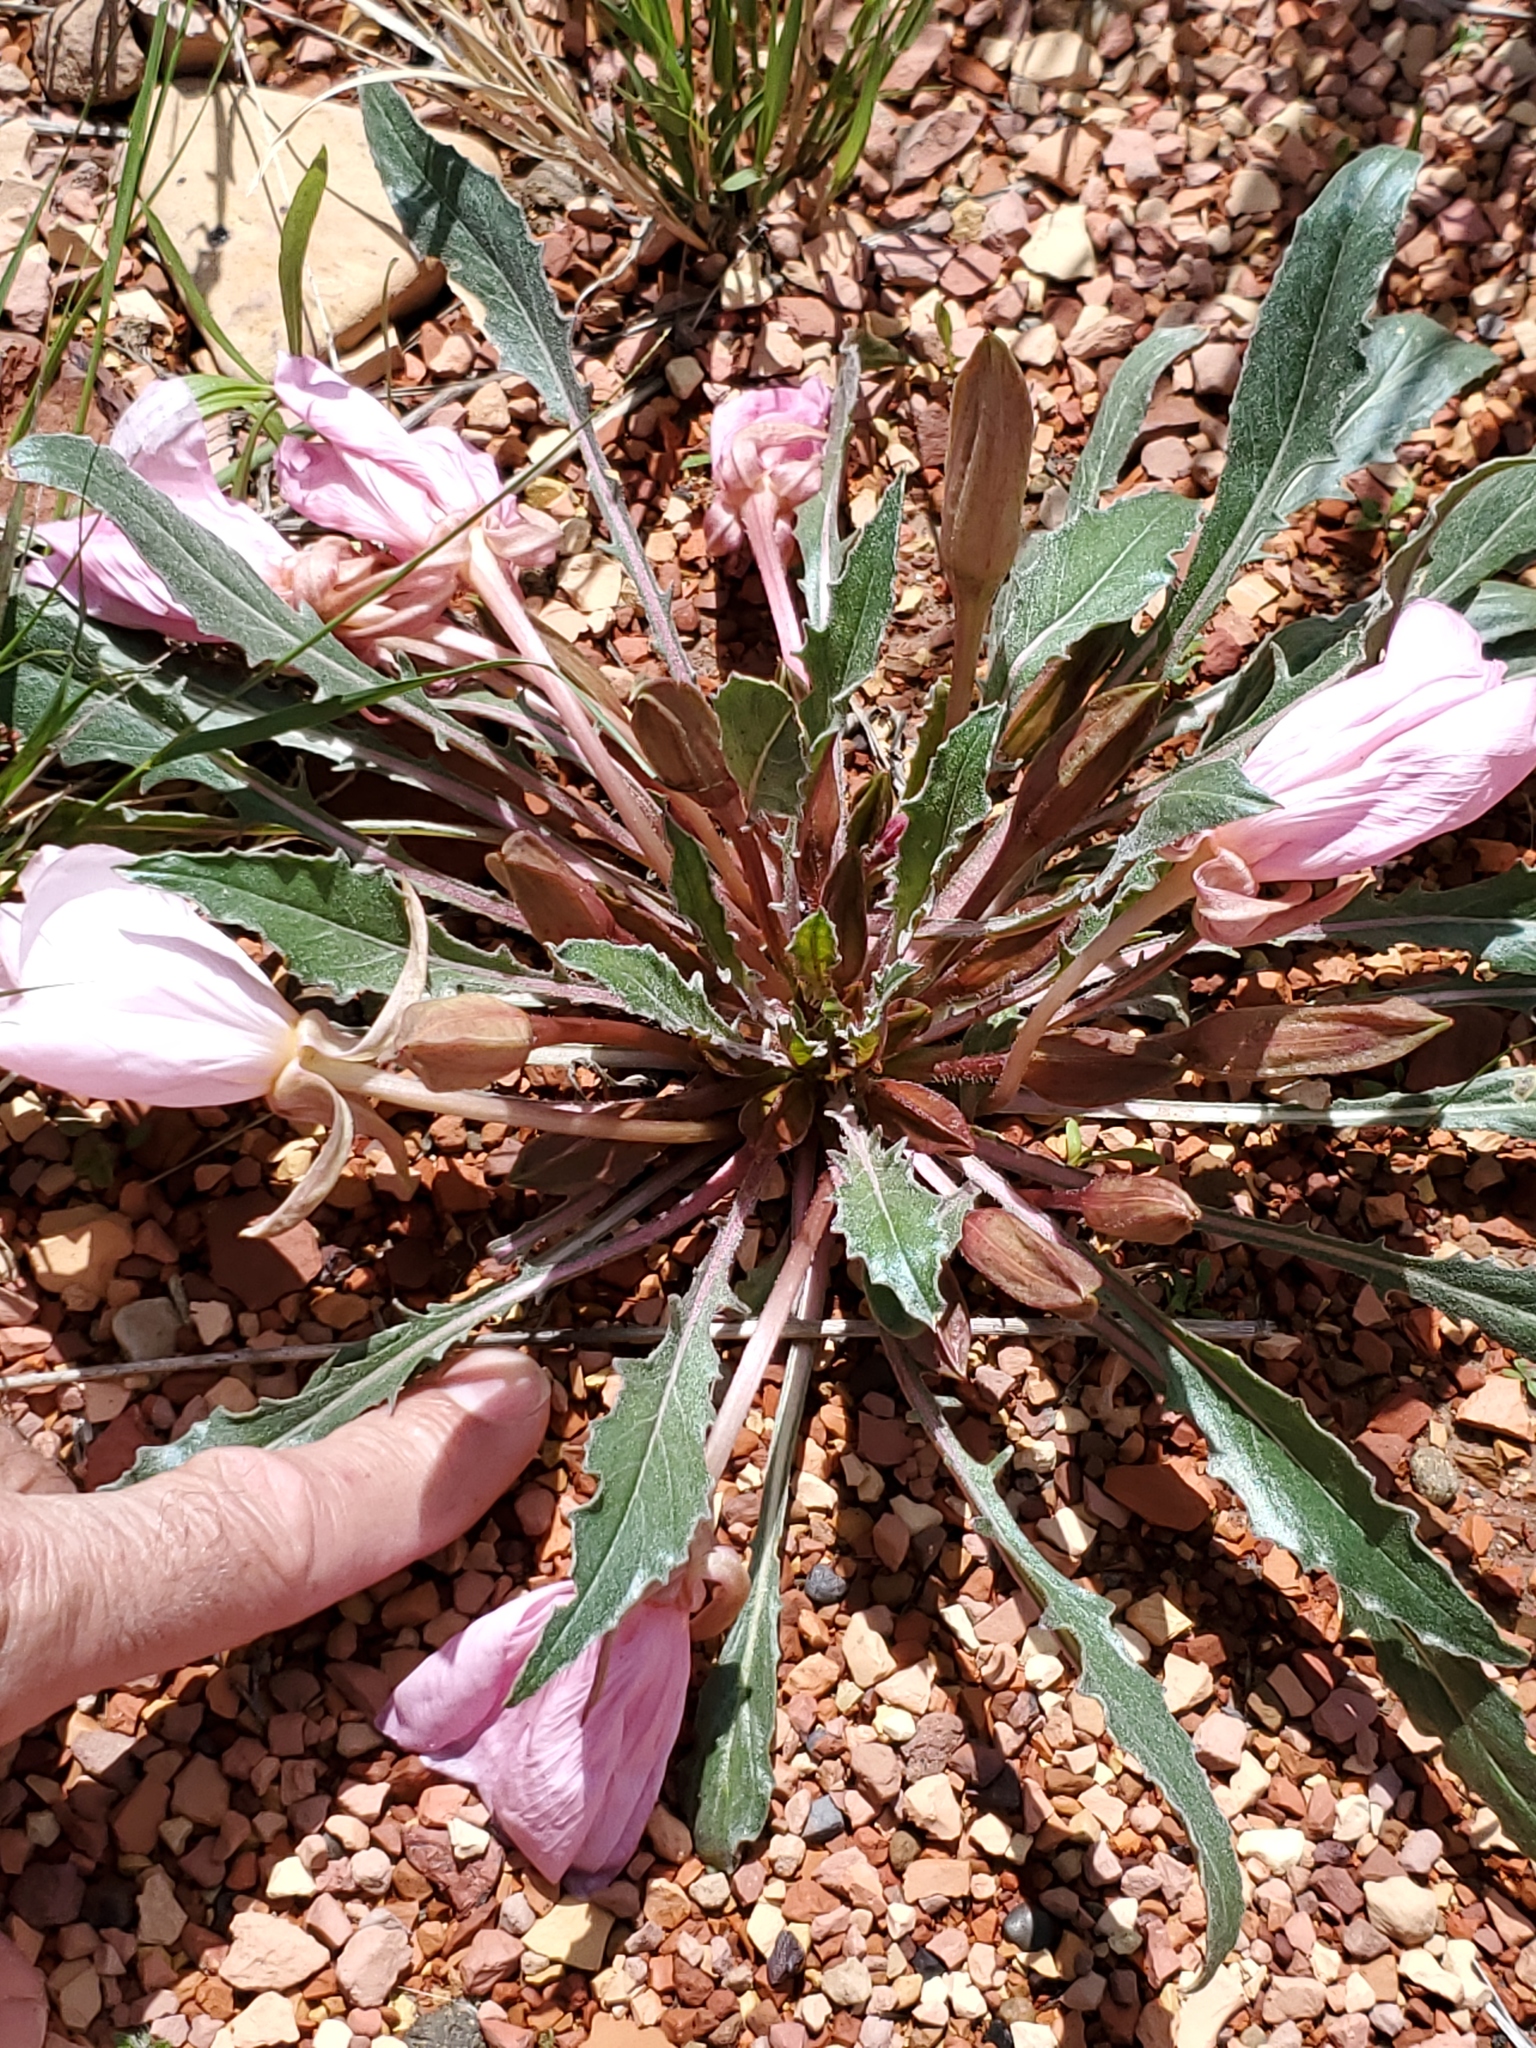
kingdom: Plantae
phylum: Tracheophyta
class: Magnoliopsida
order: Myrtales
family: Onagraceae
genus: Oenothera
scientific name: Oenothera cespitosa
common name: Tufted evening-primrose
